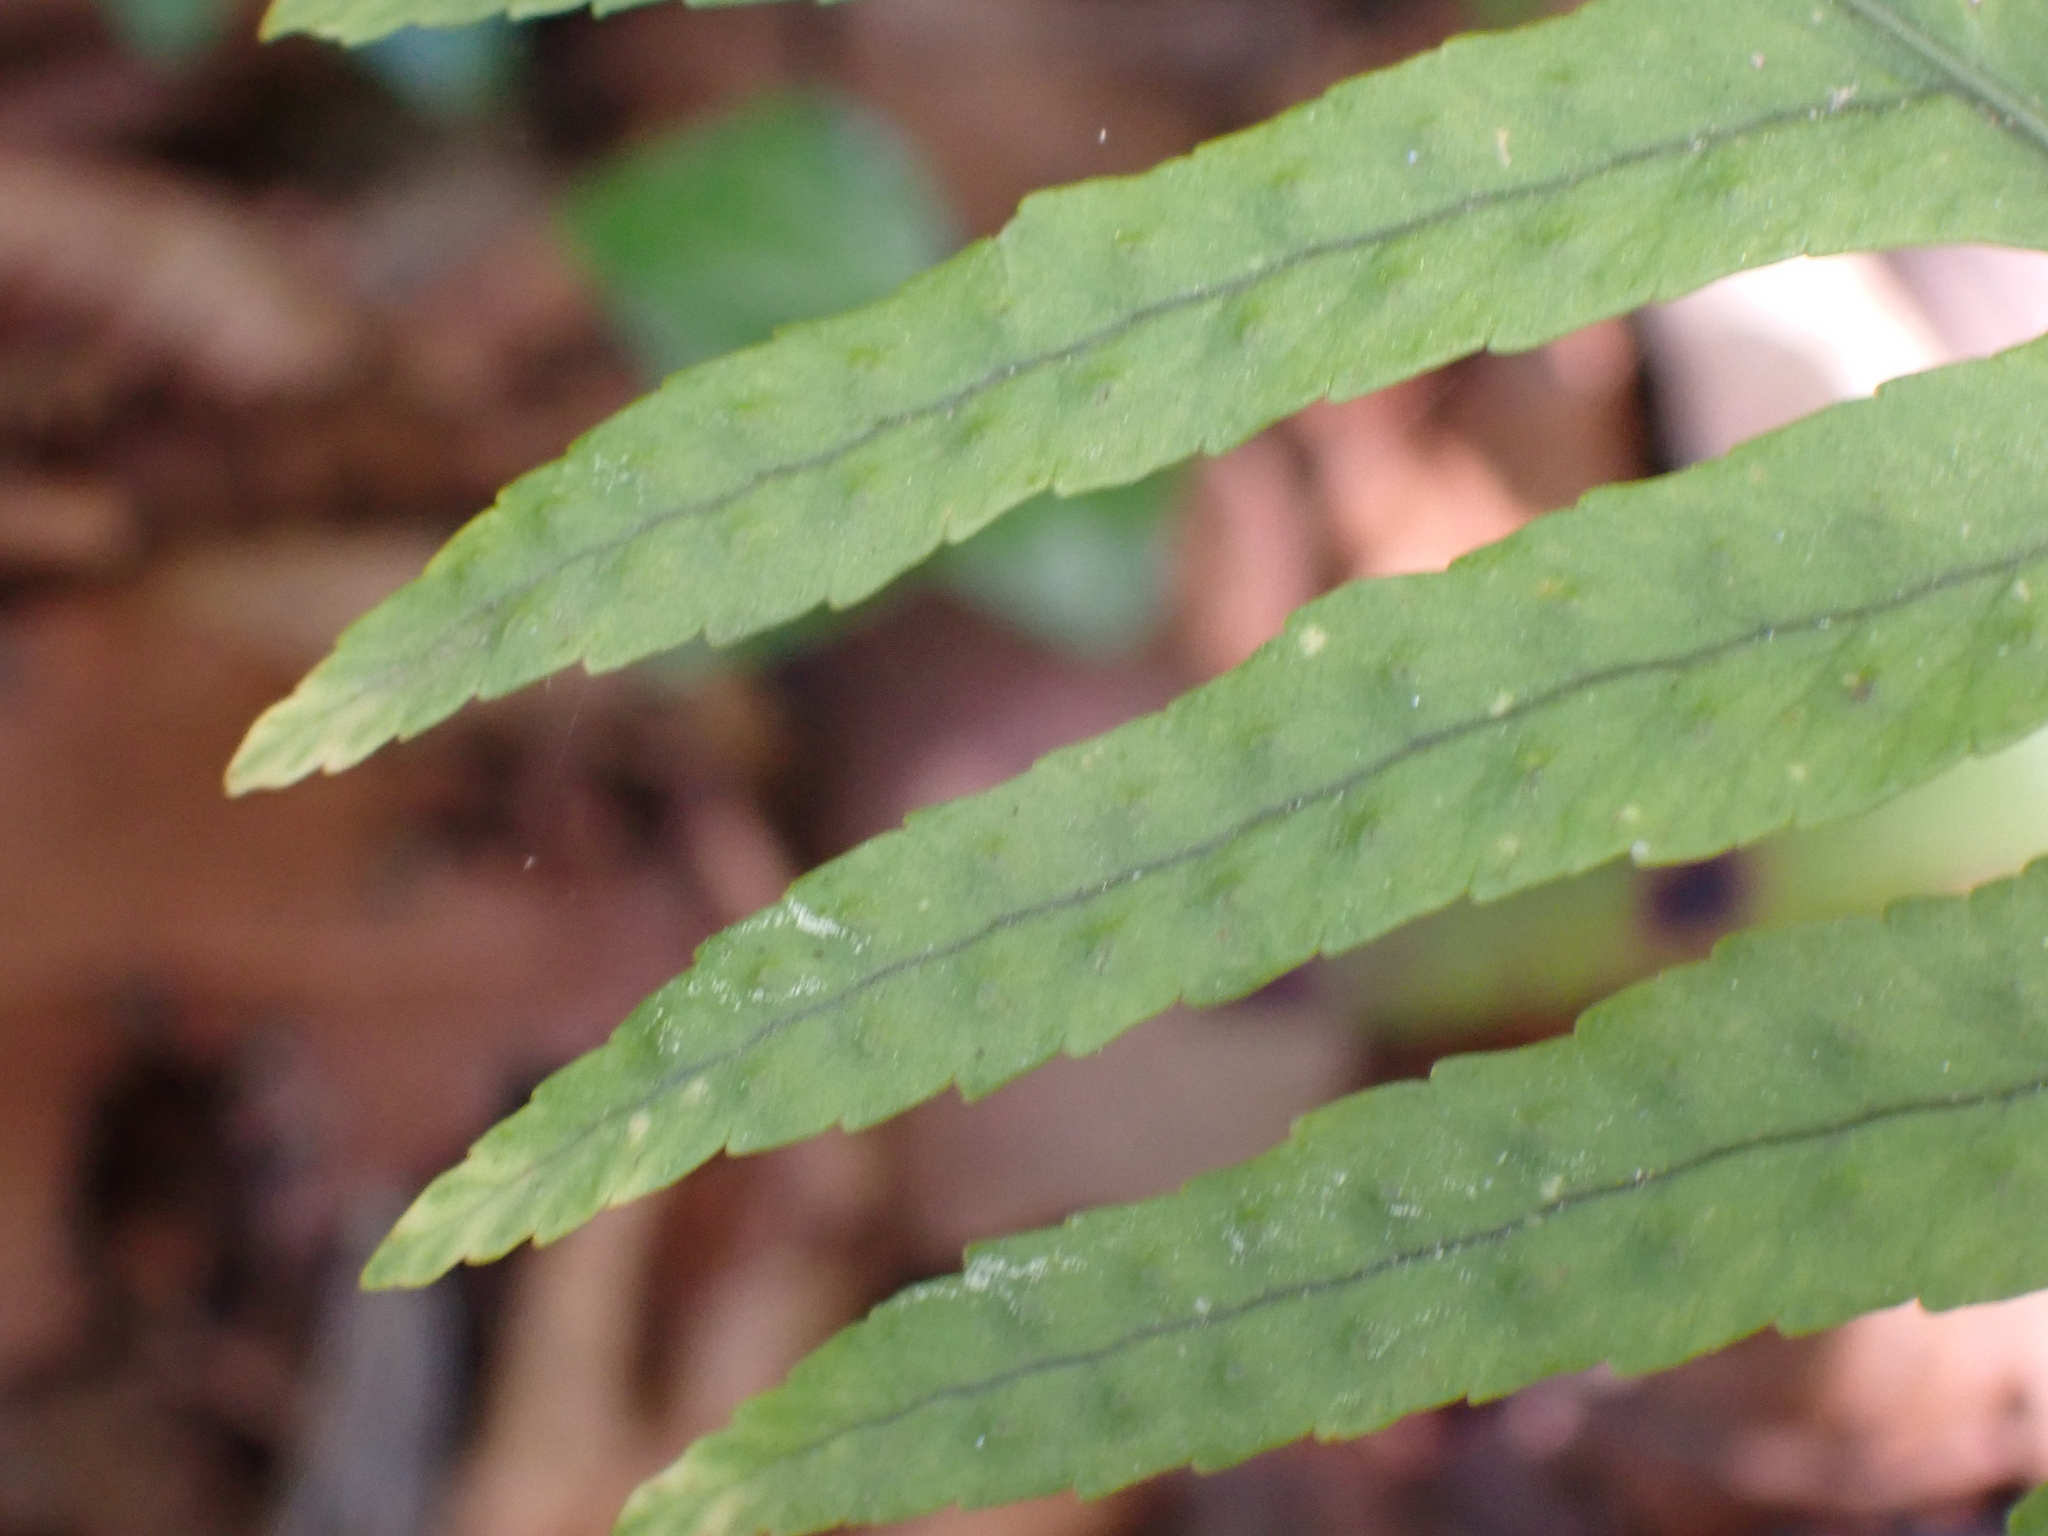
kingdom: Plantae
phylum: Tracheophyta
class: Polypodiopsida
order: Polypodiales
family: Polypodiaceae
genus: Polypodium
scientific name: Polypodium cambricum
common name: Southern polypody
